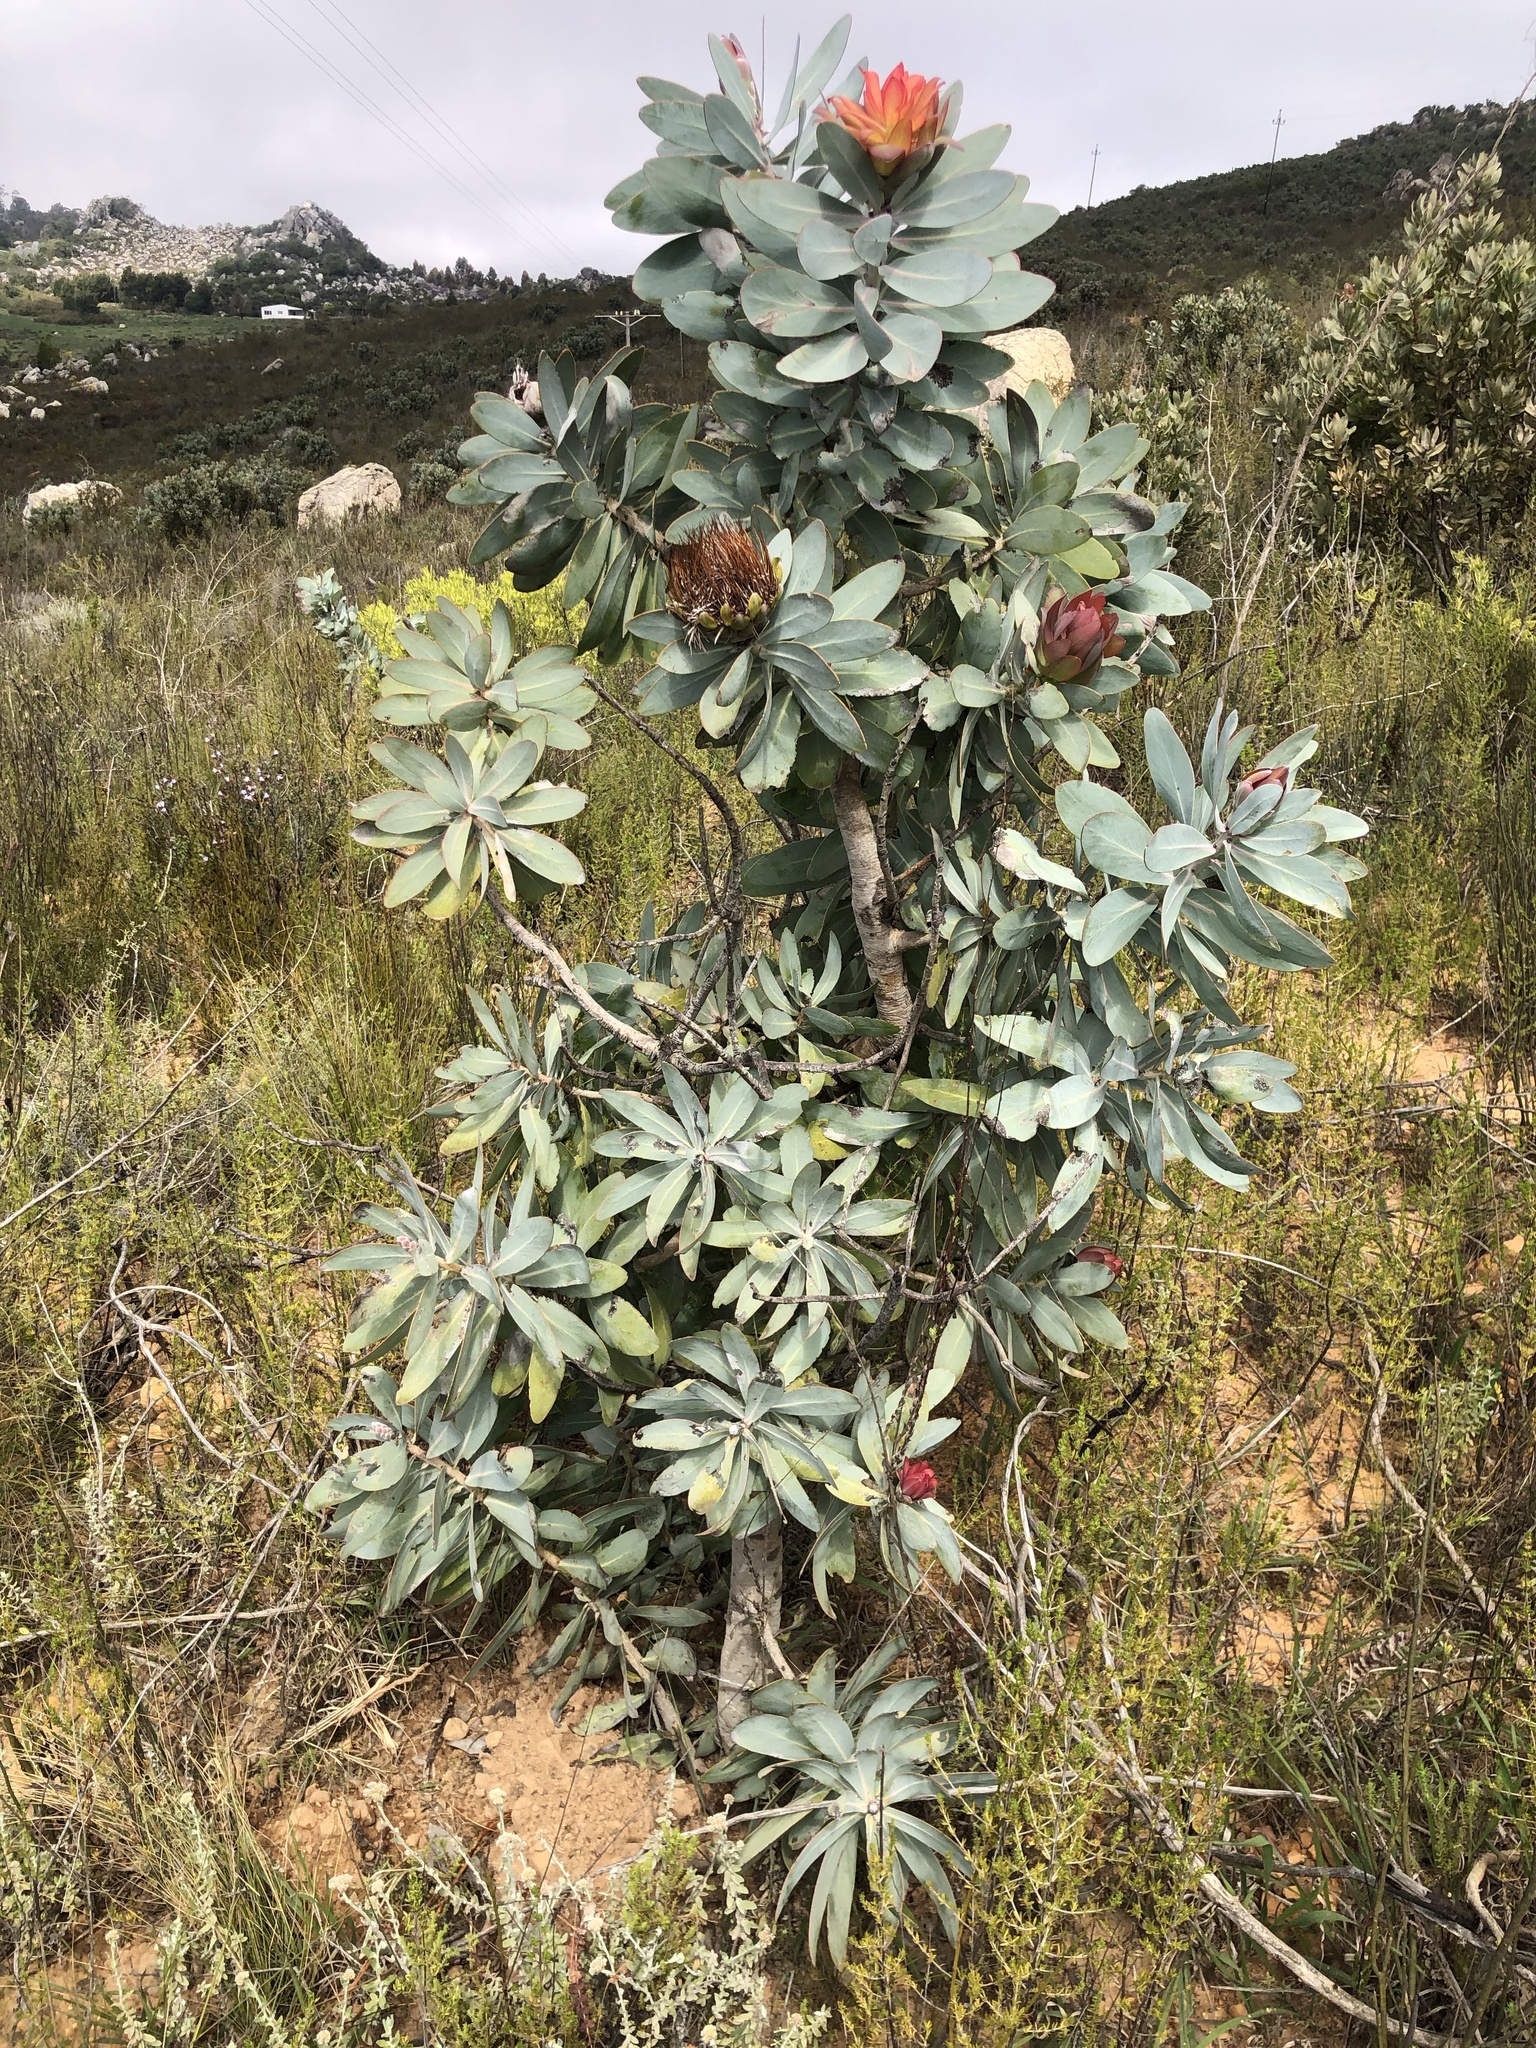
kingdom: Plantae
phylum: Tracheophyta
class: Magnoliopsida
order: Proteales
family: Proteaceae
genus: Protea
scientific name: Protea nitida
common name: Tree protea
